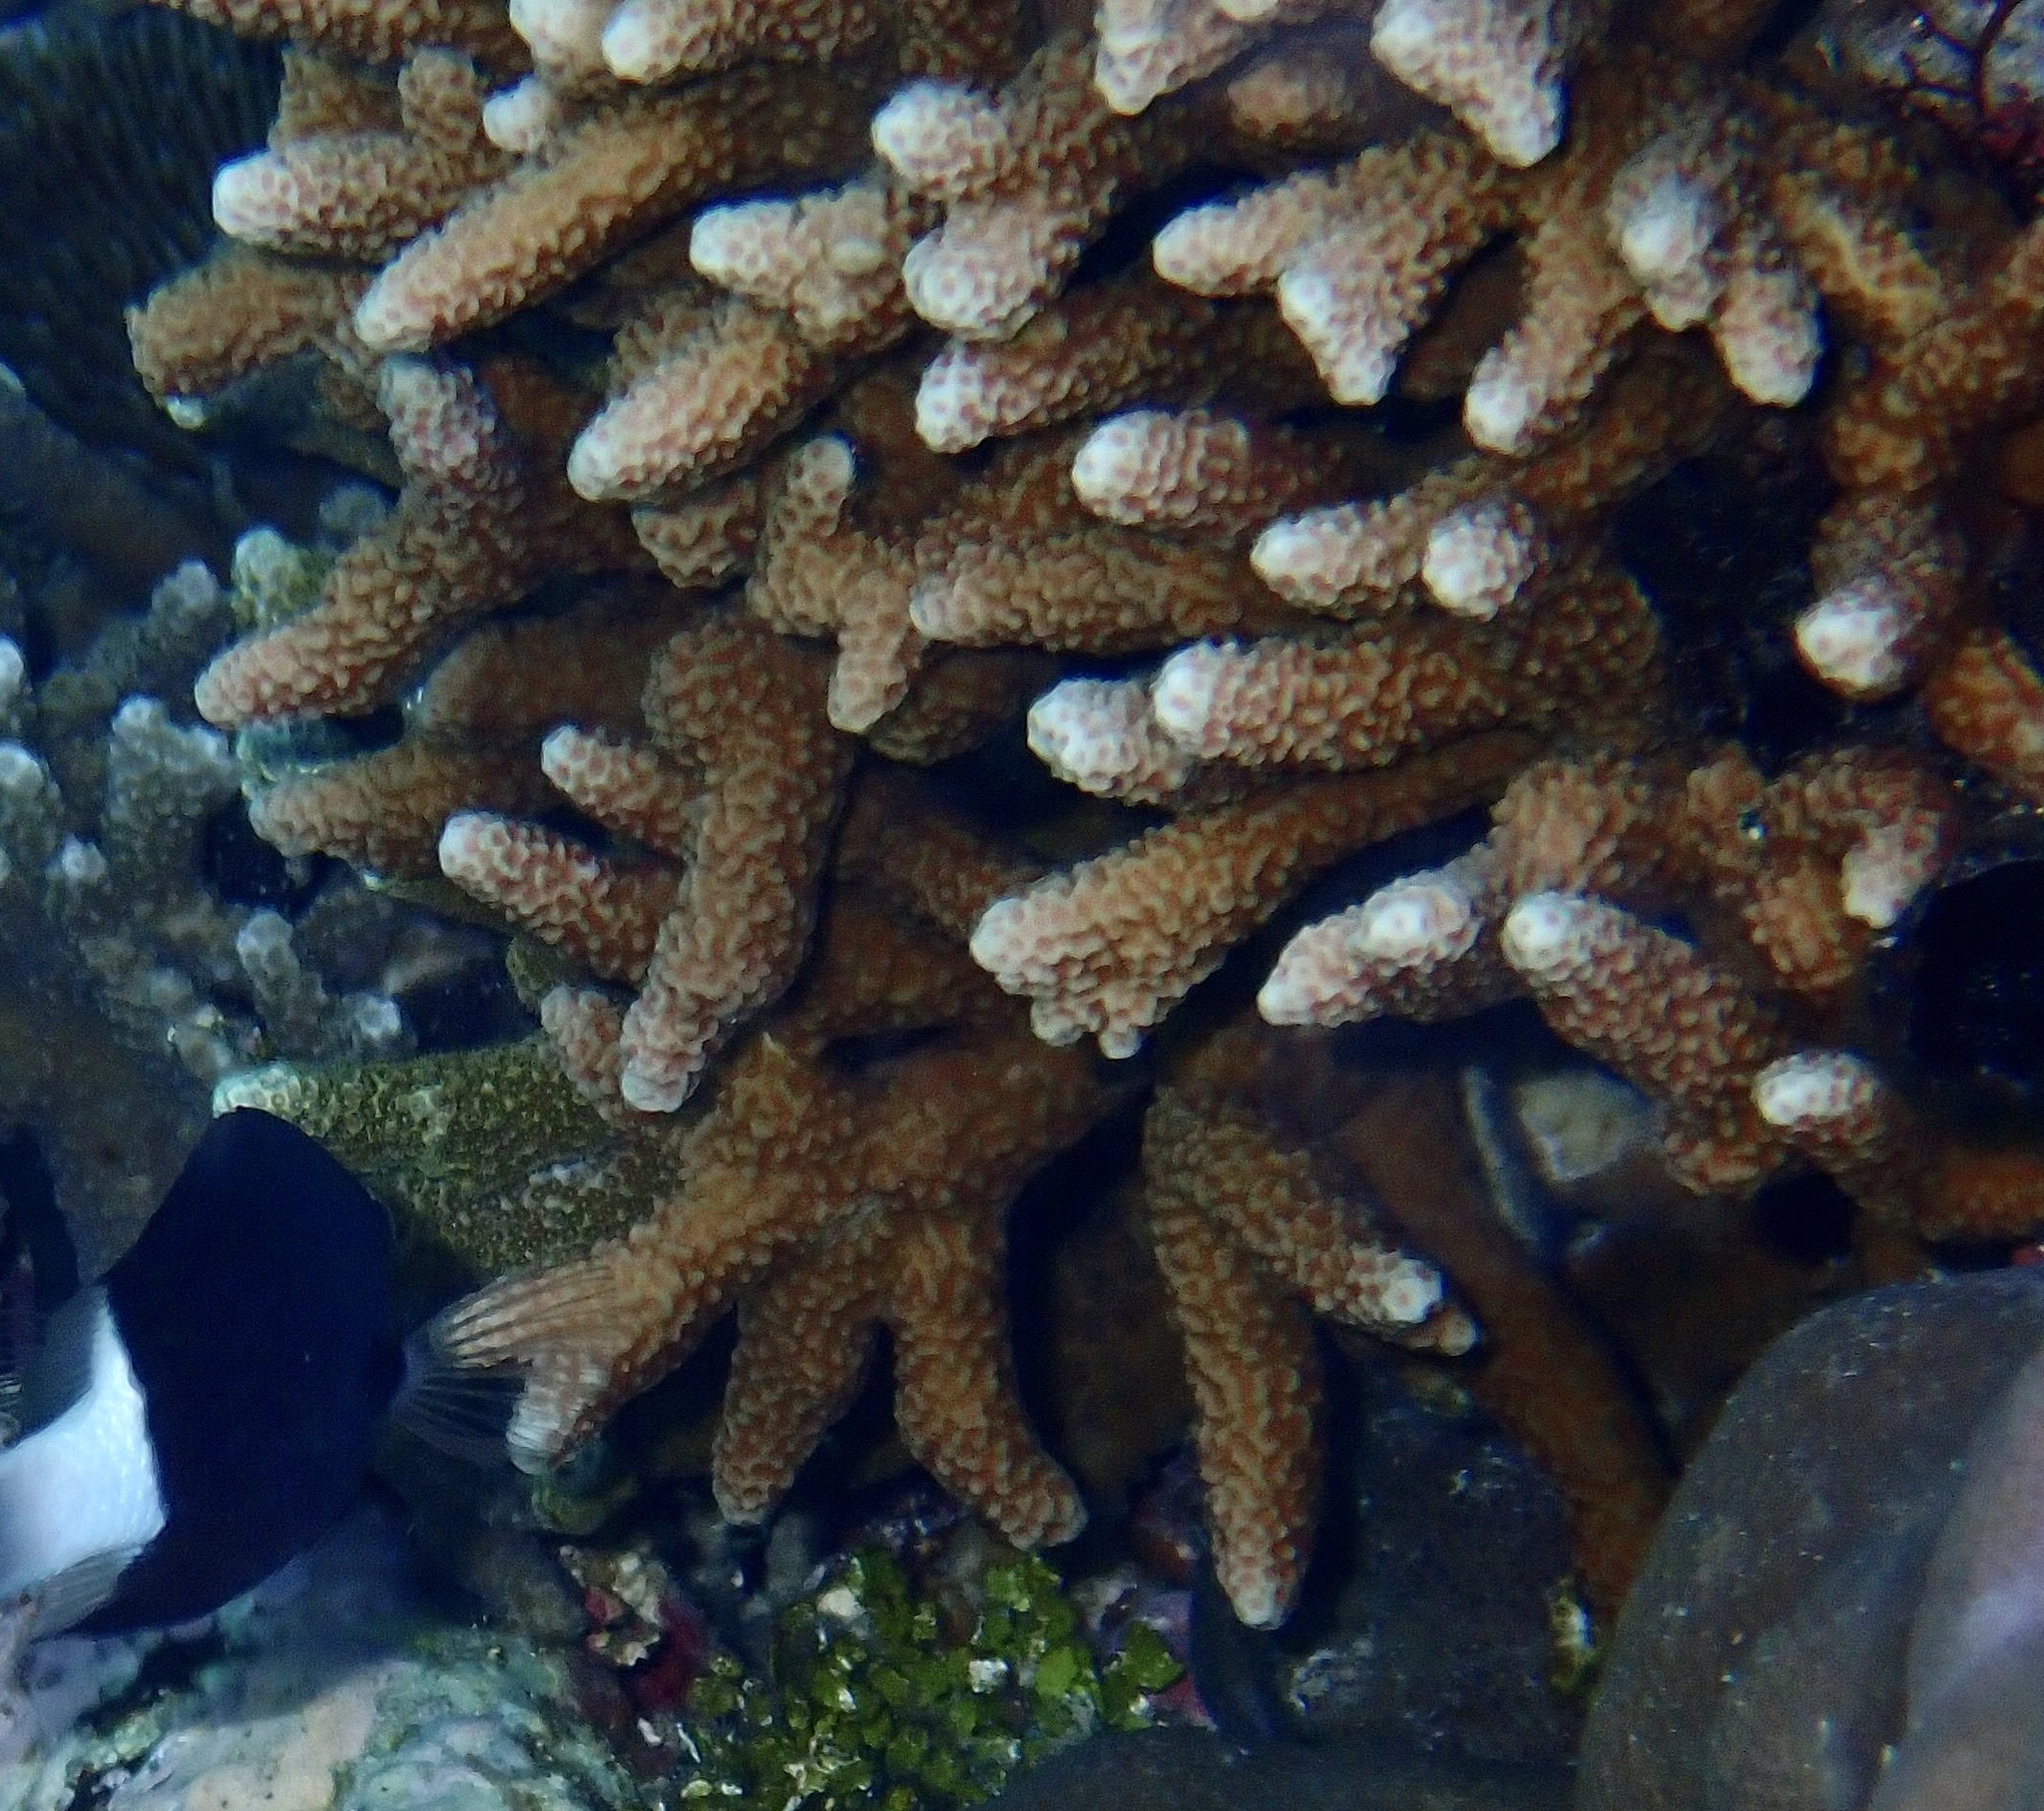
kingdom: Animalia
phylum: Cnidaria
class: Anthozoa
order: Scleractinia
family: Poritidae
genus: Porites
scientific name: Porites nigrescens
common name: Hump coral
